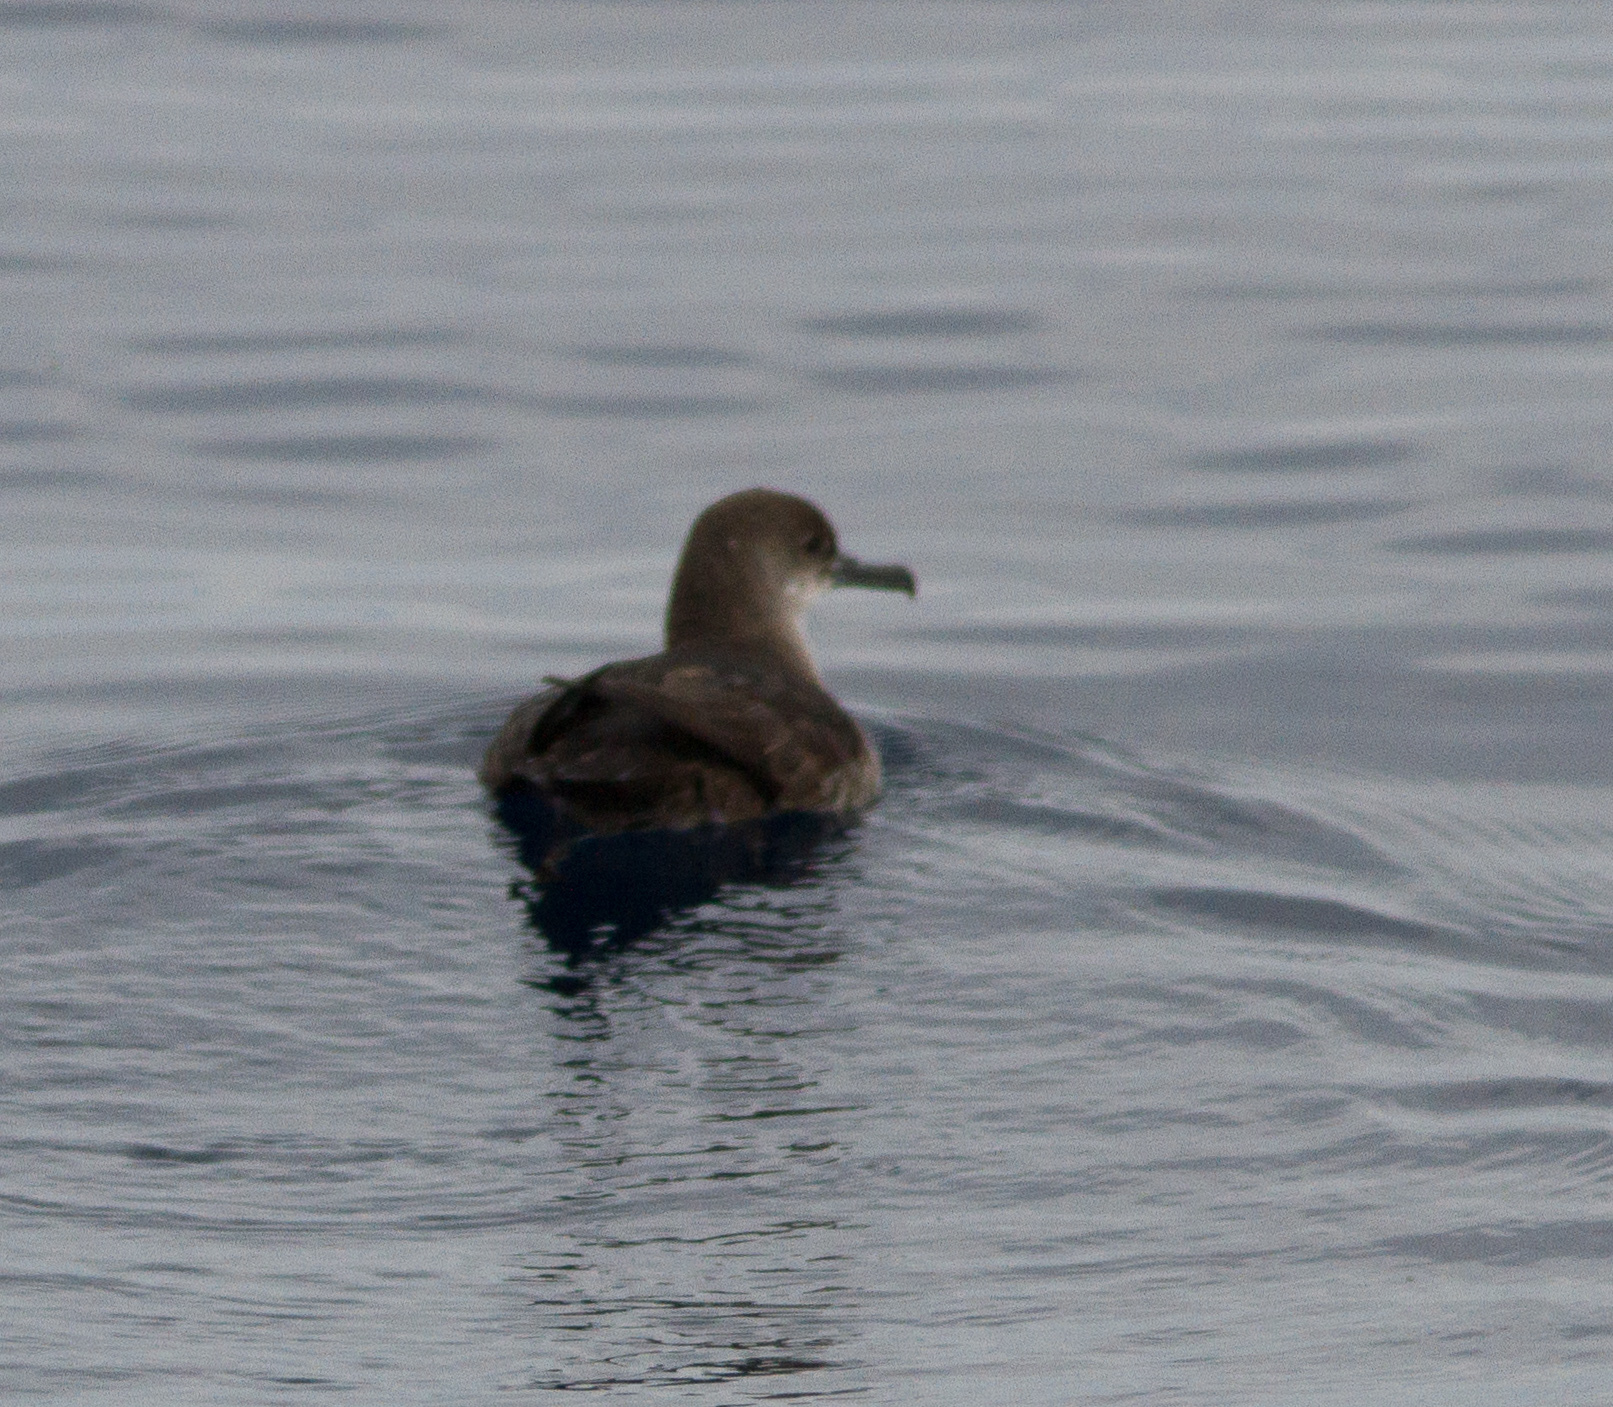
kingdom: Animalia
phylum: Chordata
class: Aves
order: Procellariiformes
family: Procellariidae
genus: Puffinus
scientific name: Puffinus opisthomelas
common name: Black-vented shearwater
